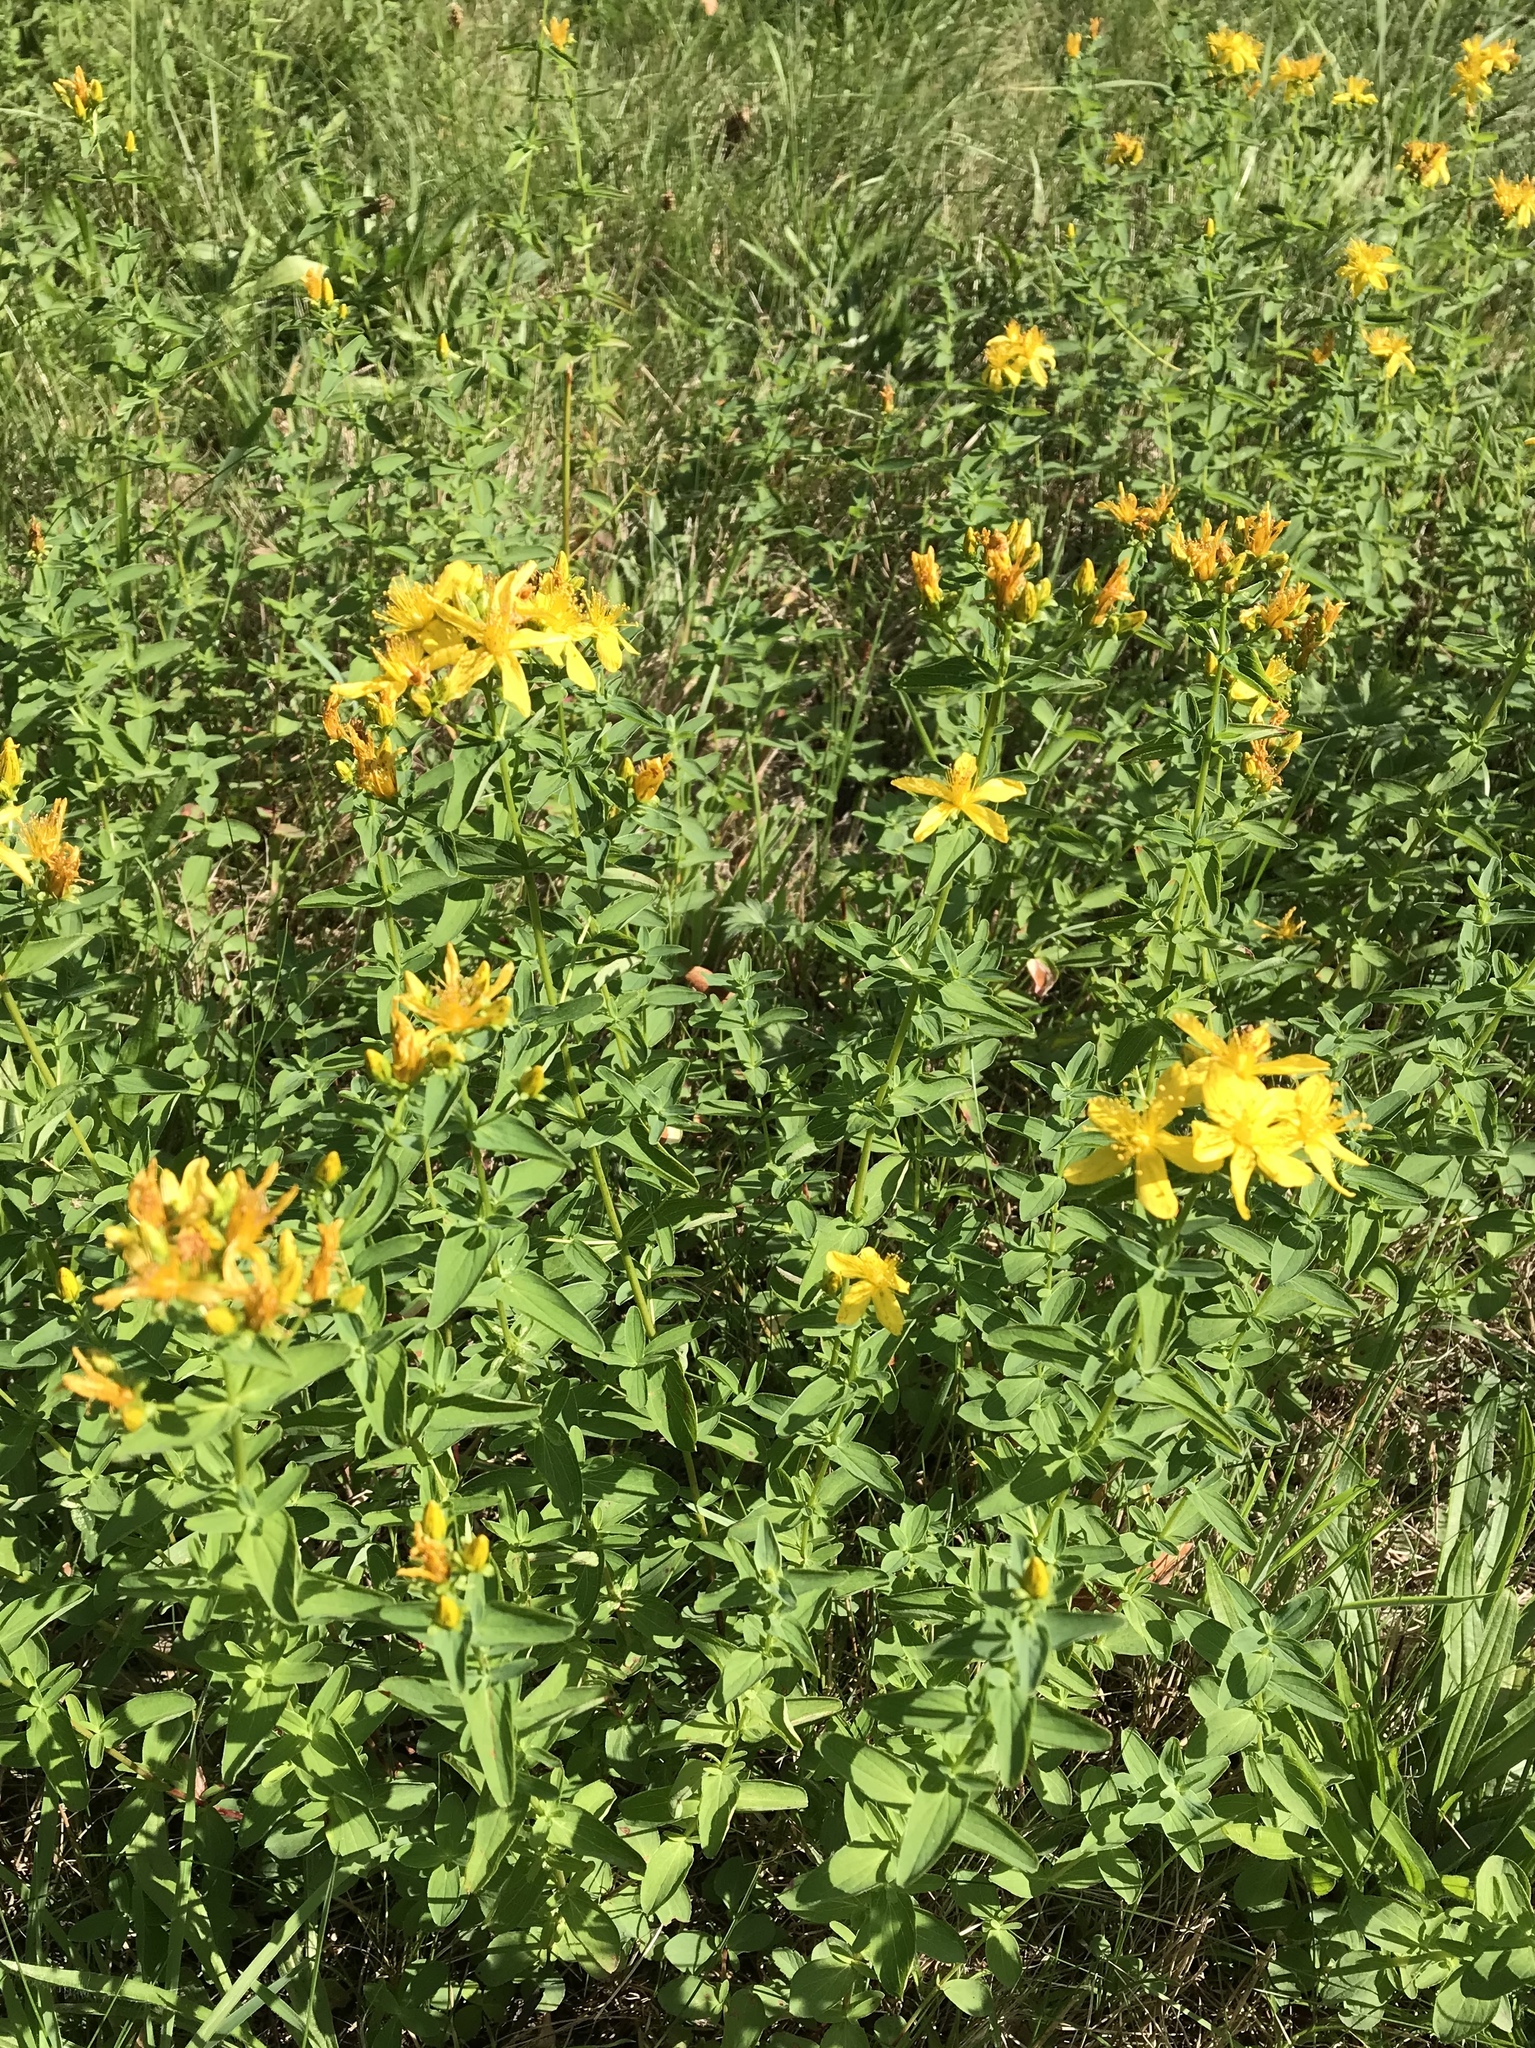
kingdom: Plantae
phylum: Tracheophyta
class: Magnoliopsida
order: Malpighiales
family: Hypericaceae
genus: Hypericum
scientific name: Hypericum perforatum
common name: Common st. johnswort
